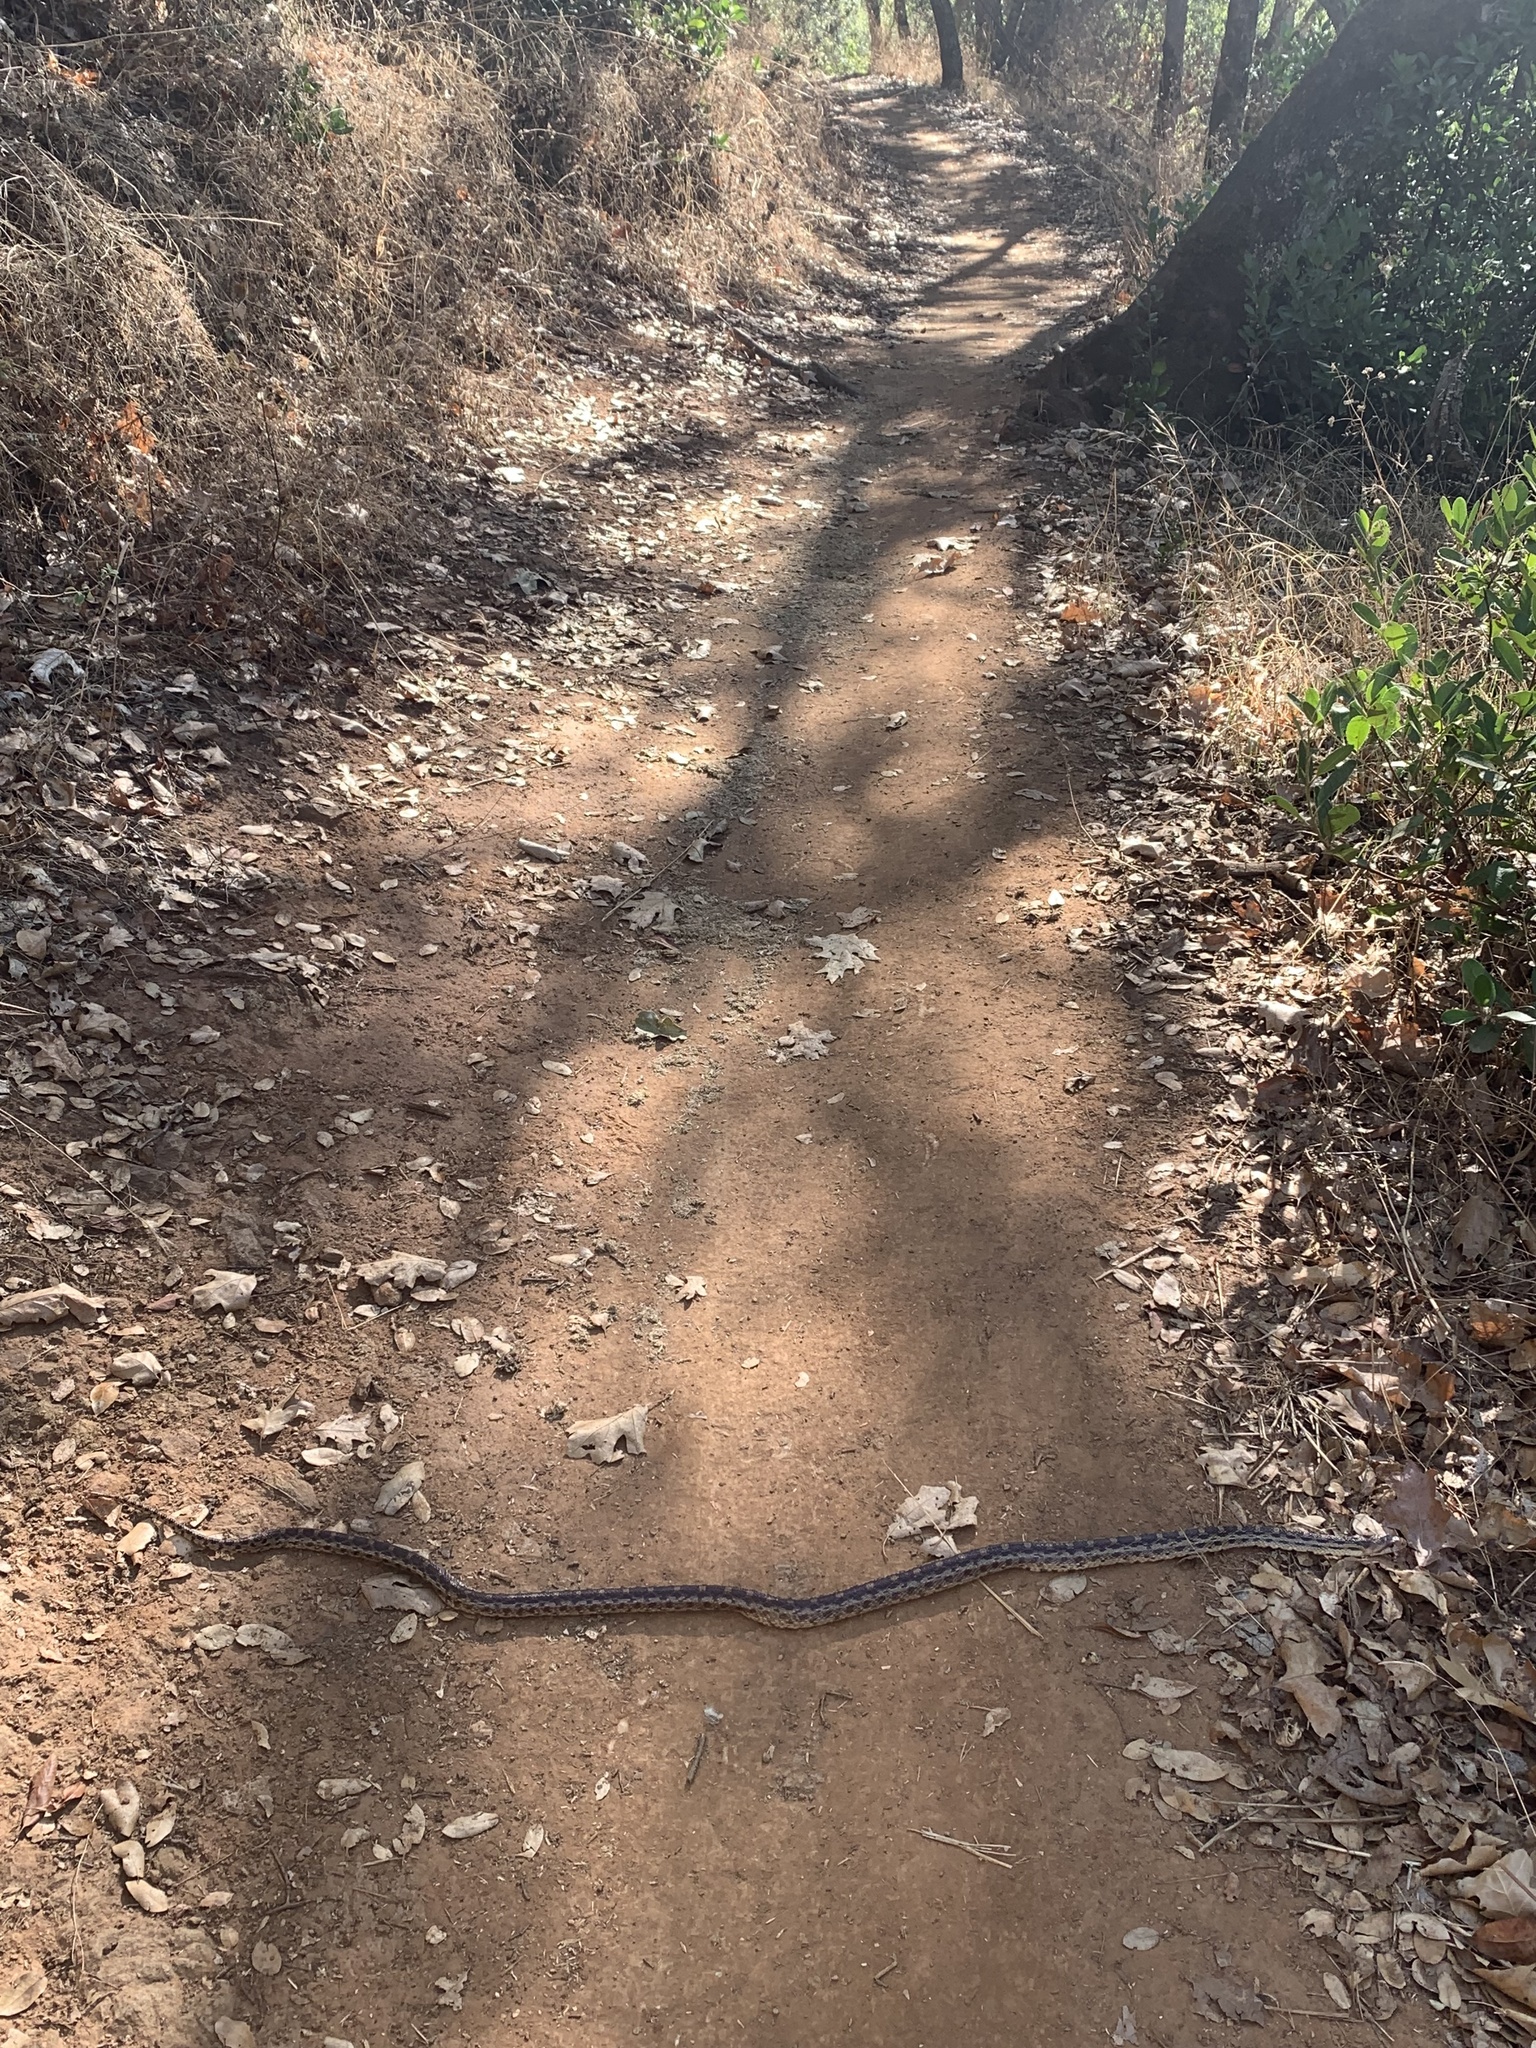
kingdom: Animalia
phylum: Chordata
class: Squamata
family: Colubridae
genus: Pituophis
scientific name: Pituophis catenifer
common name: Gopher snake
